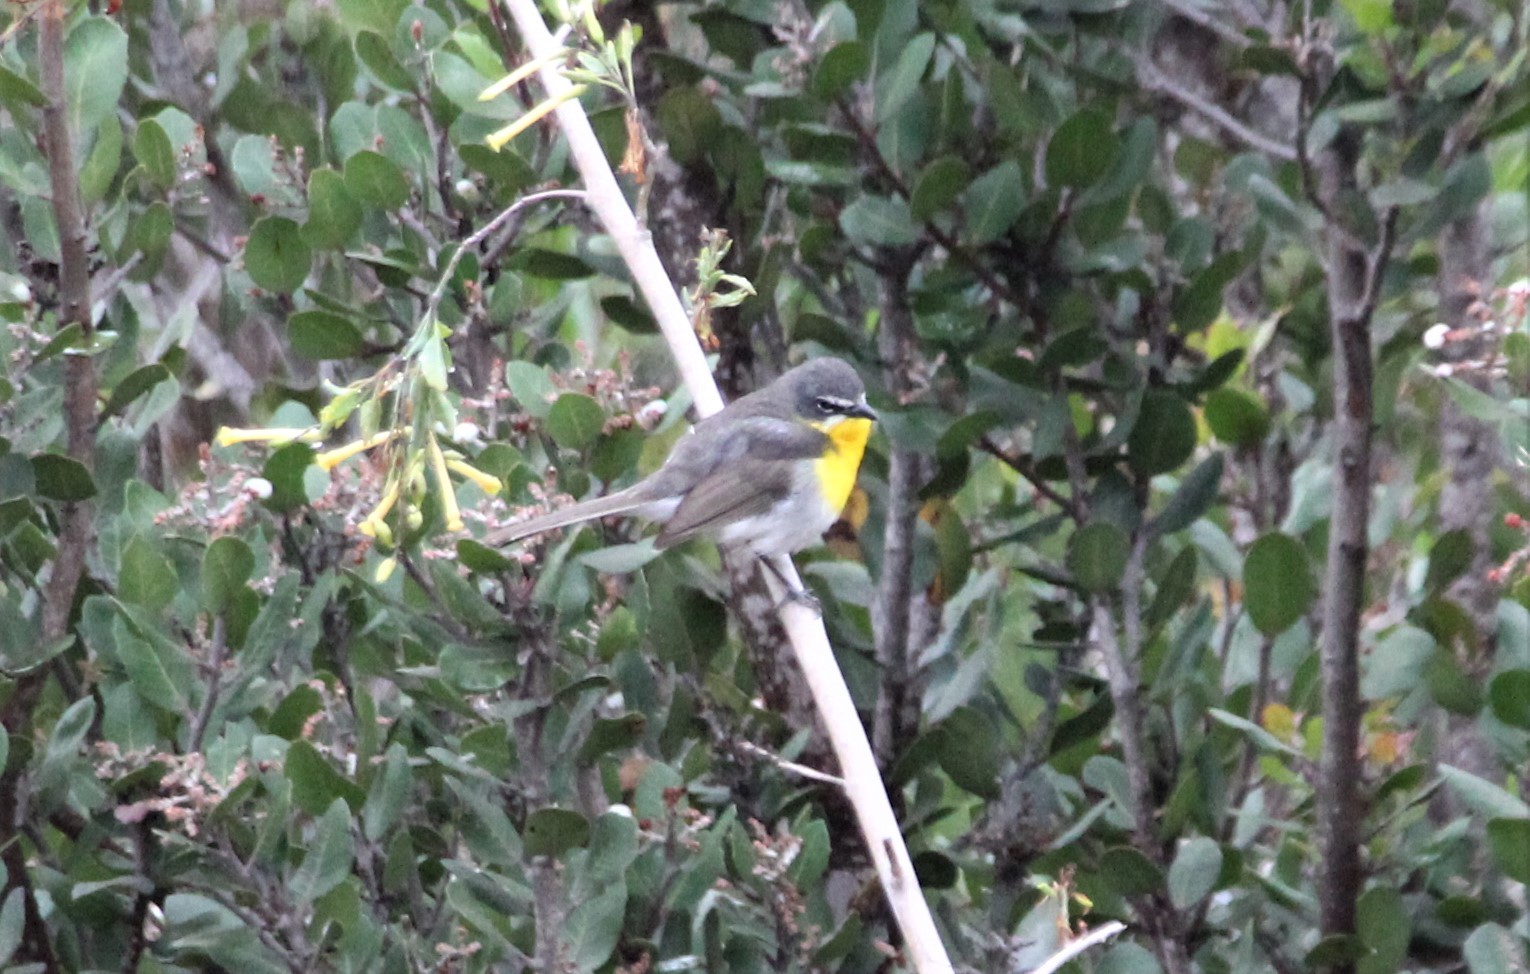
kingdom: Animalia
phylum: Chordata
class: Aves
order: Passeriformes
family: Parulidae
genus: Icteria
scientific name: Icteria virens
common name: Yellow-breasted chat
